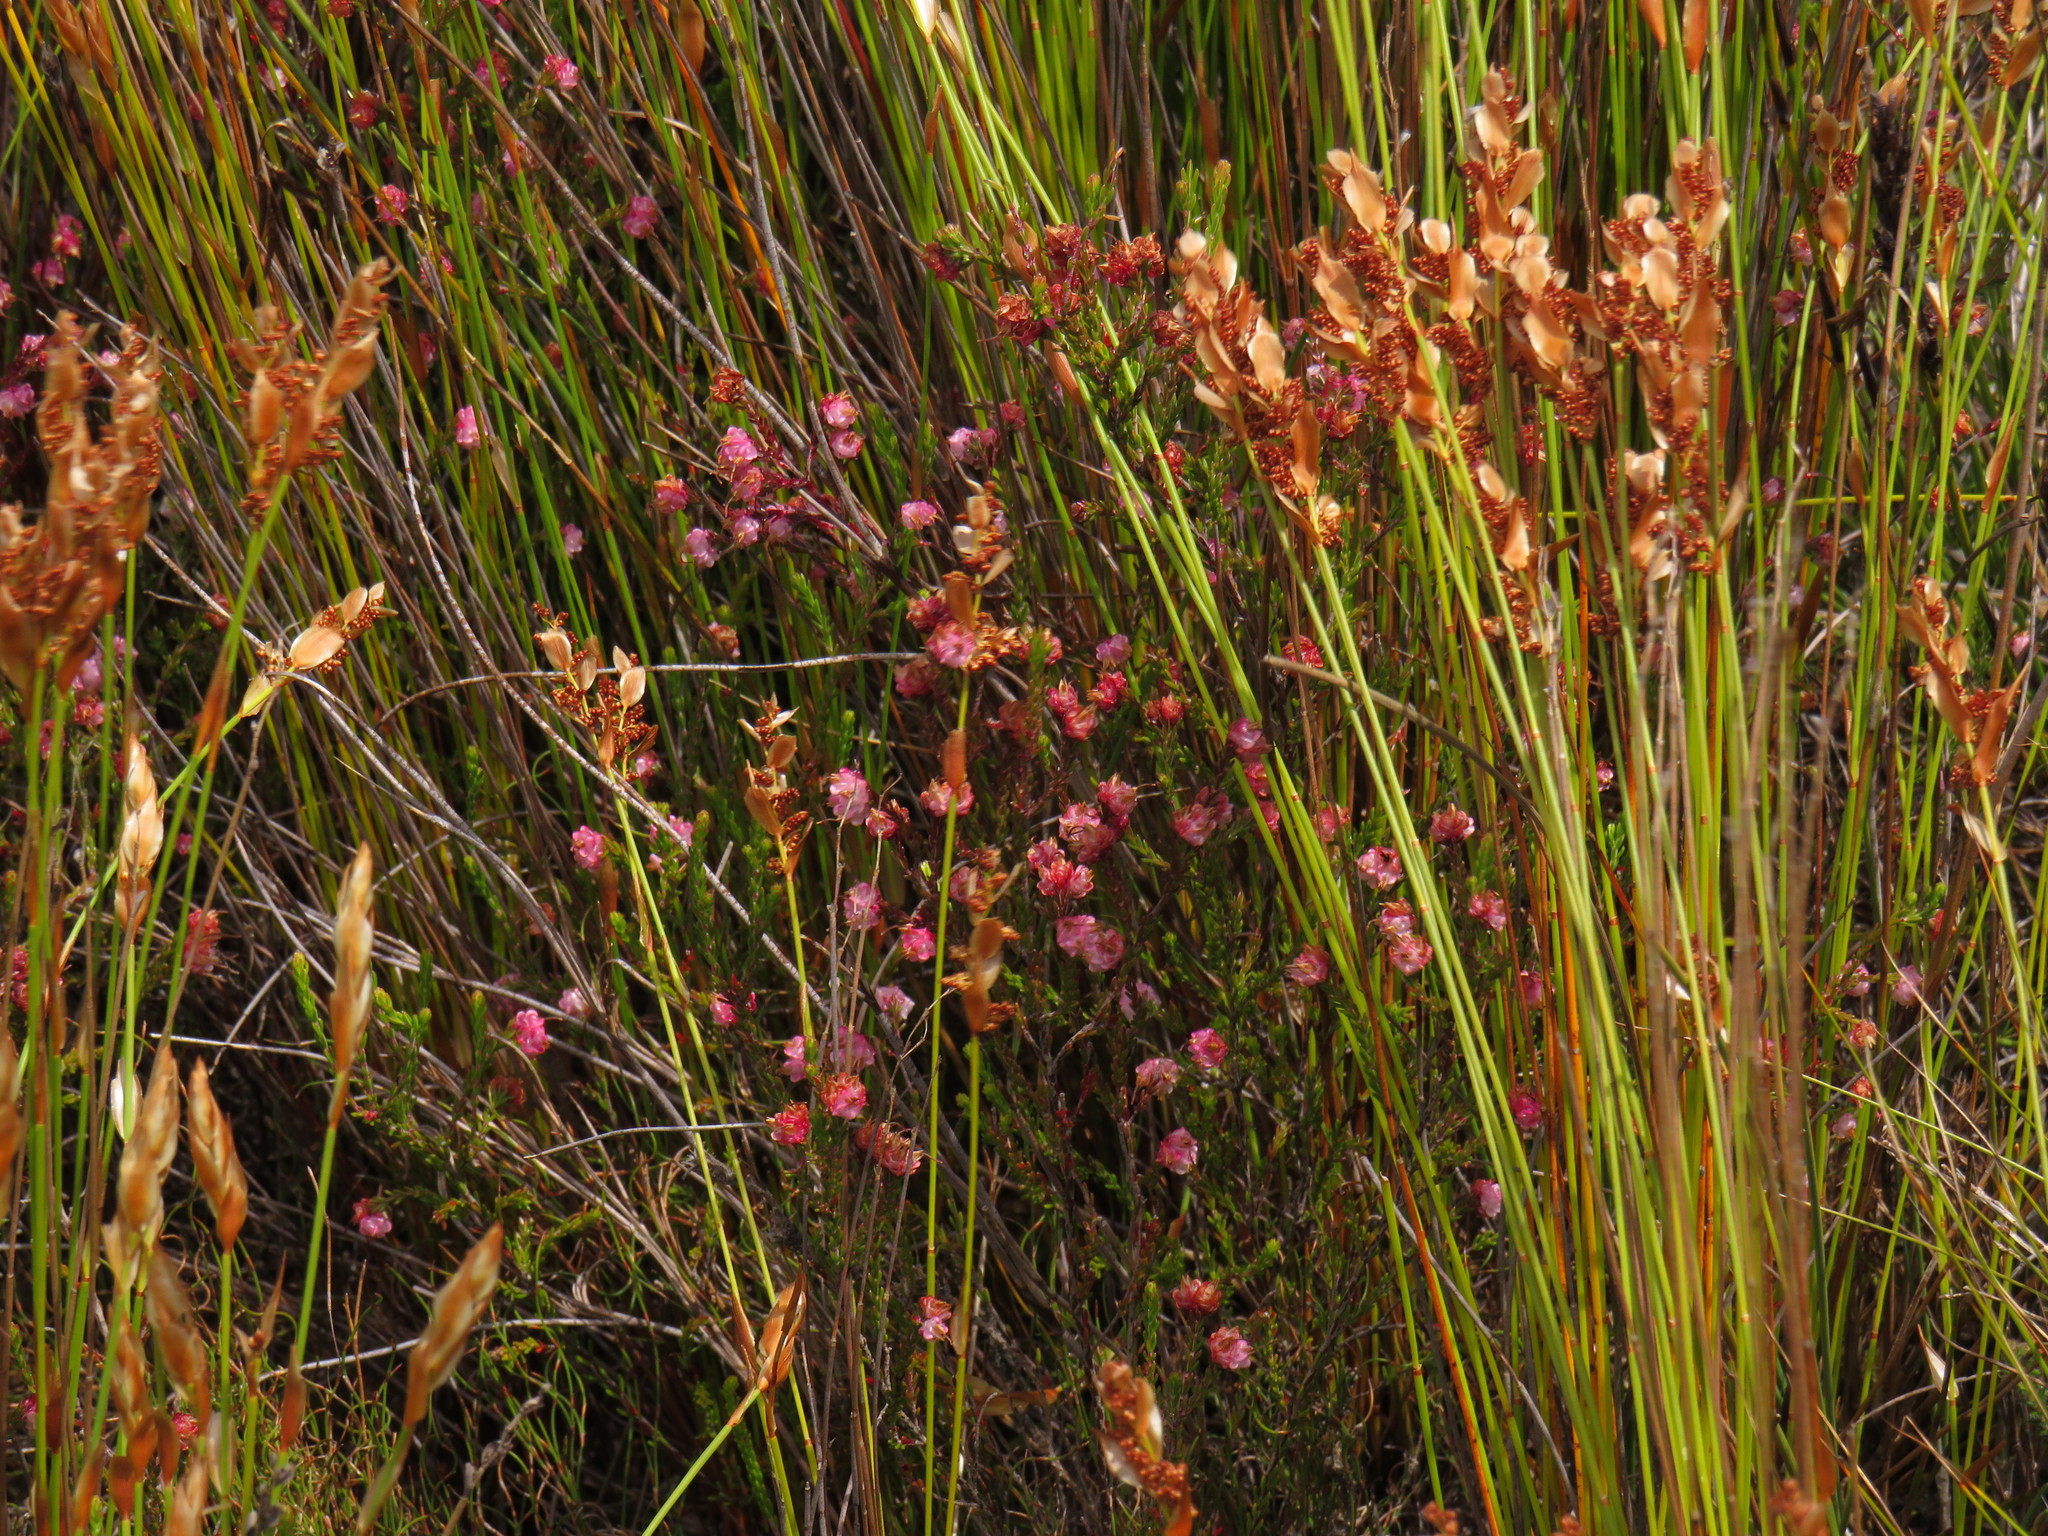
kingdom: Plantae
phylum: Tracheophyta
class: Magnoliopsida
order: Ericales
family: Ericaceae
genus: Erica
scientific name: Erica spumosa
